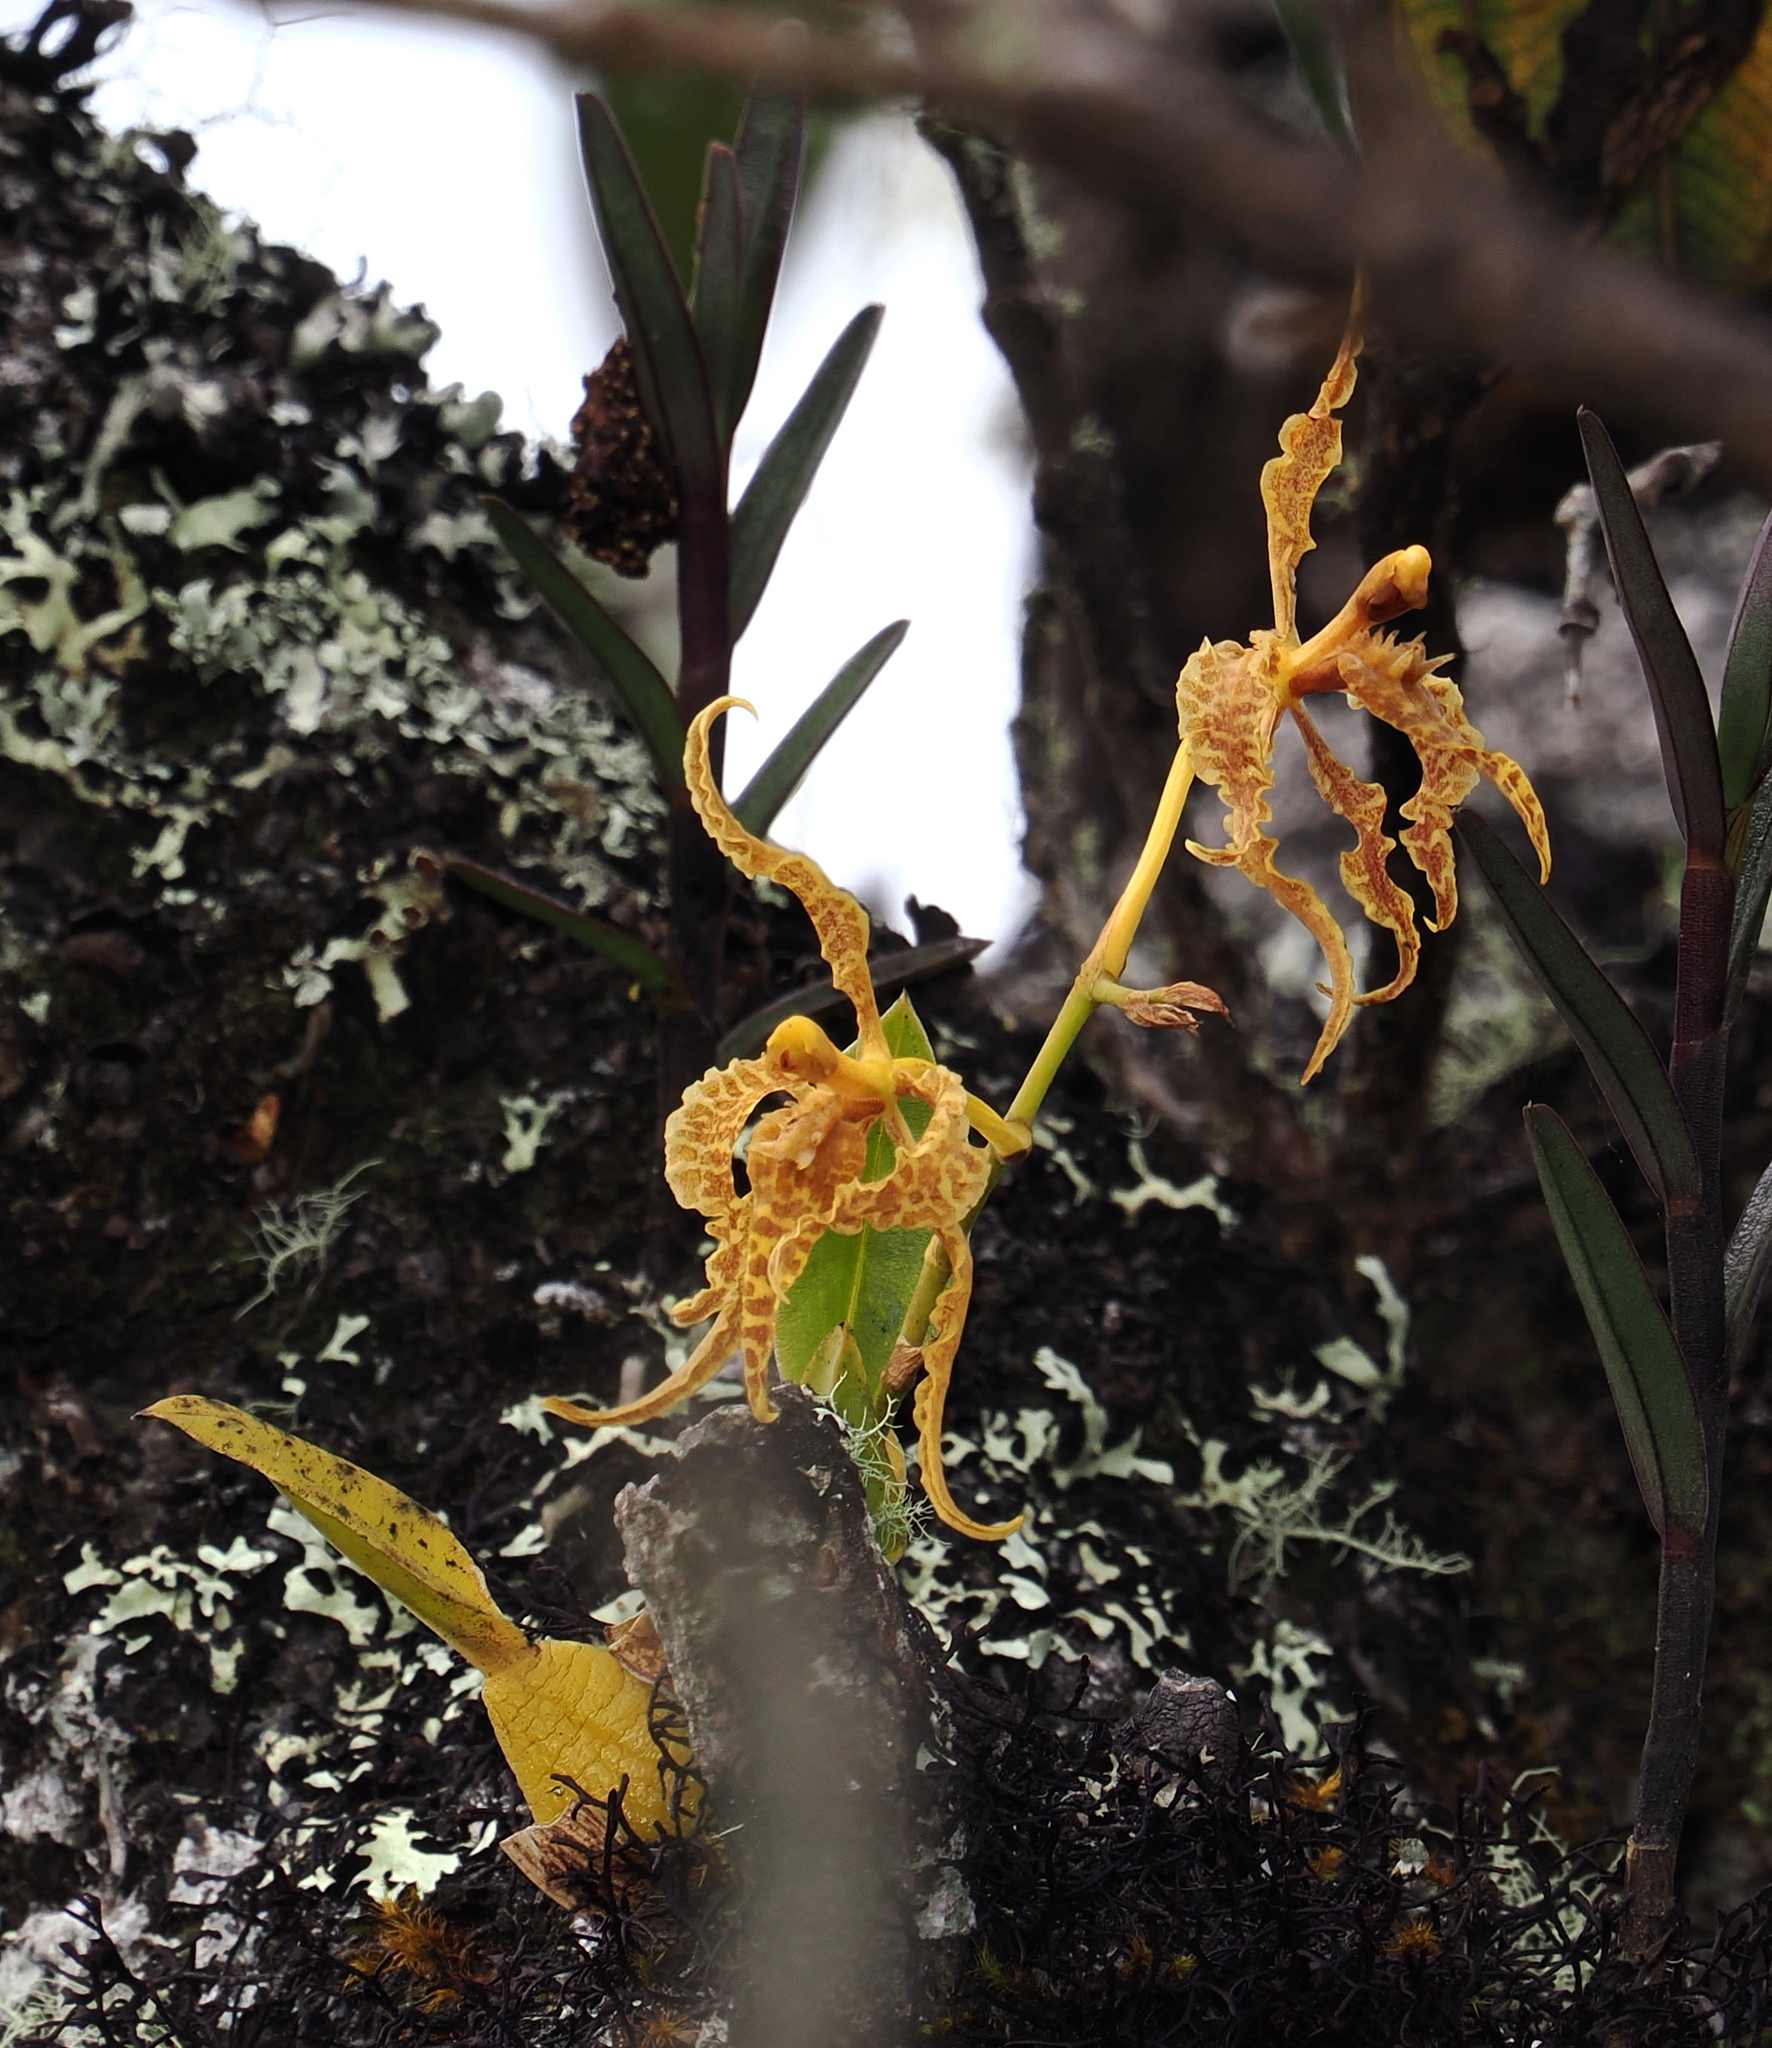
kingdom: Plantae
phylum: Tracheophyta
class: Liliopsida
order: Asparagales
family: Orchidaceae
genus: Cyrtochilum
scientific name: Cyrtochilum angustatum
